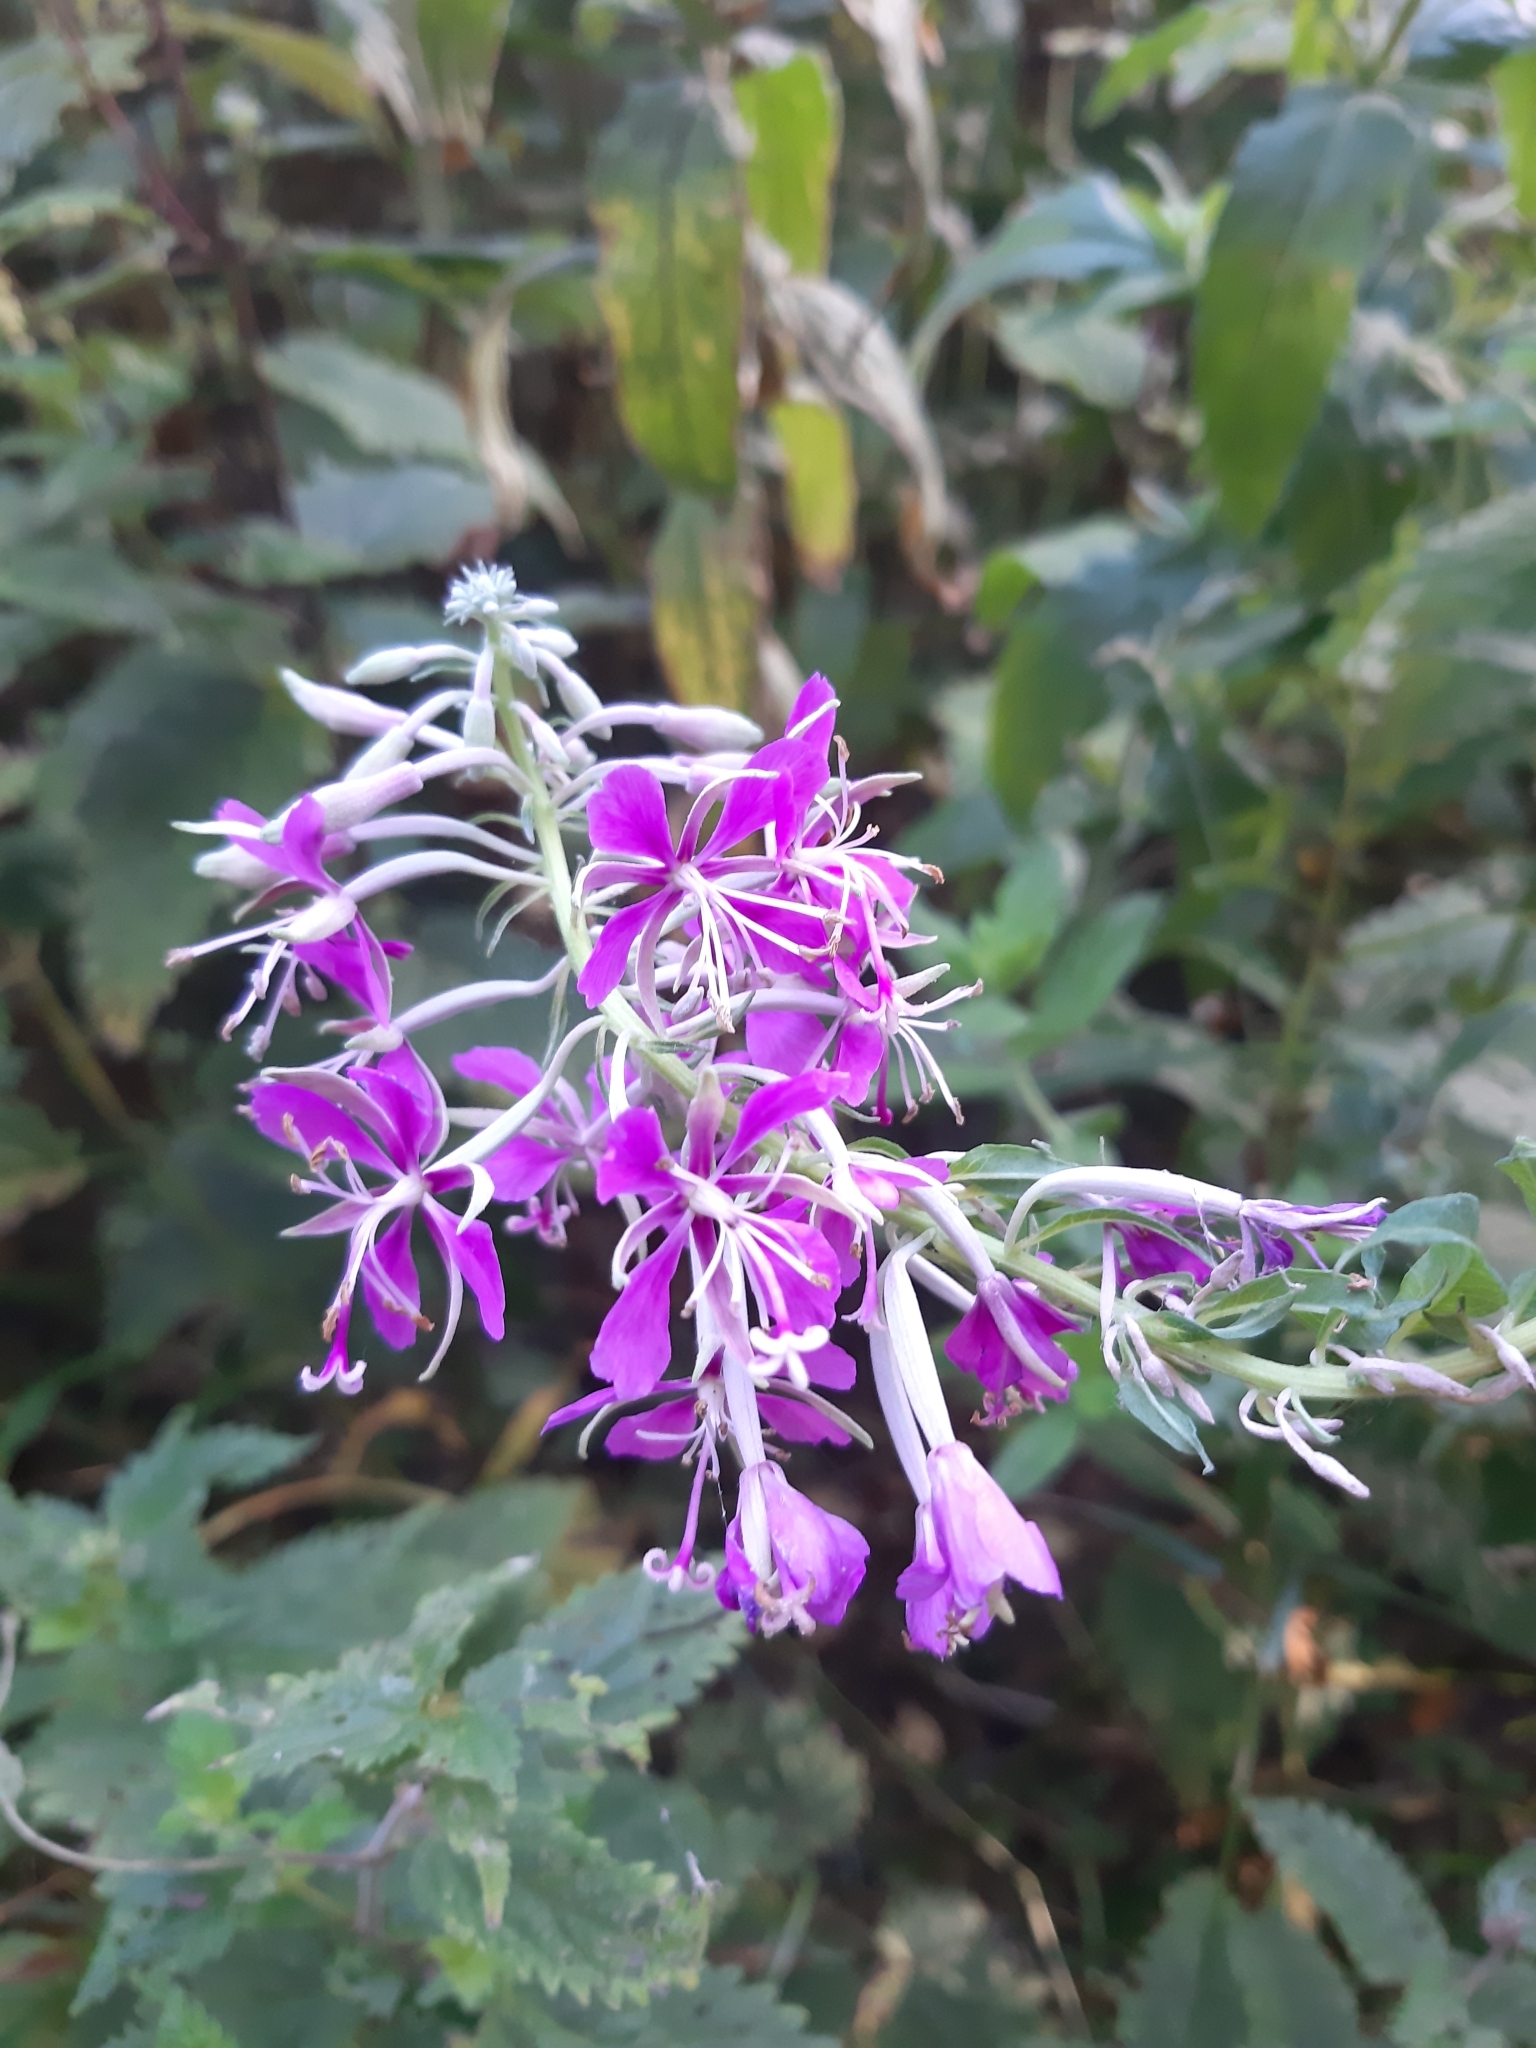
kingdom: Plantae
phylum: Tracheophyta
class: Magnoliopsida
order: Myrtales
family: Onagraceae
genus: Chamaenerion
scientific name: Chamaenerion angustifolium
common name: Fireweed
